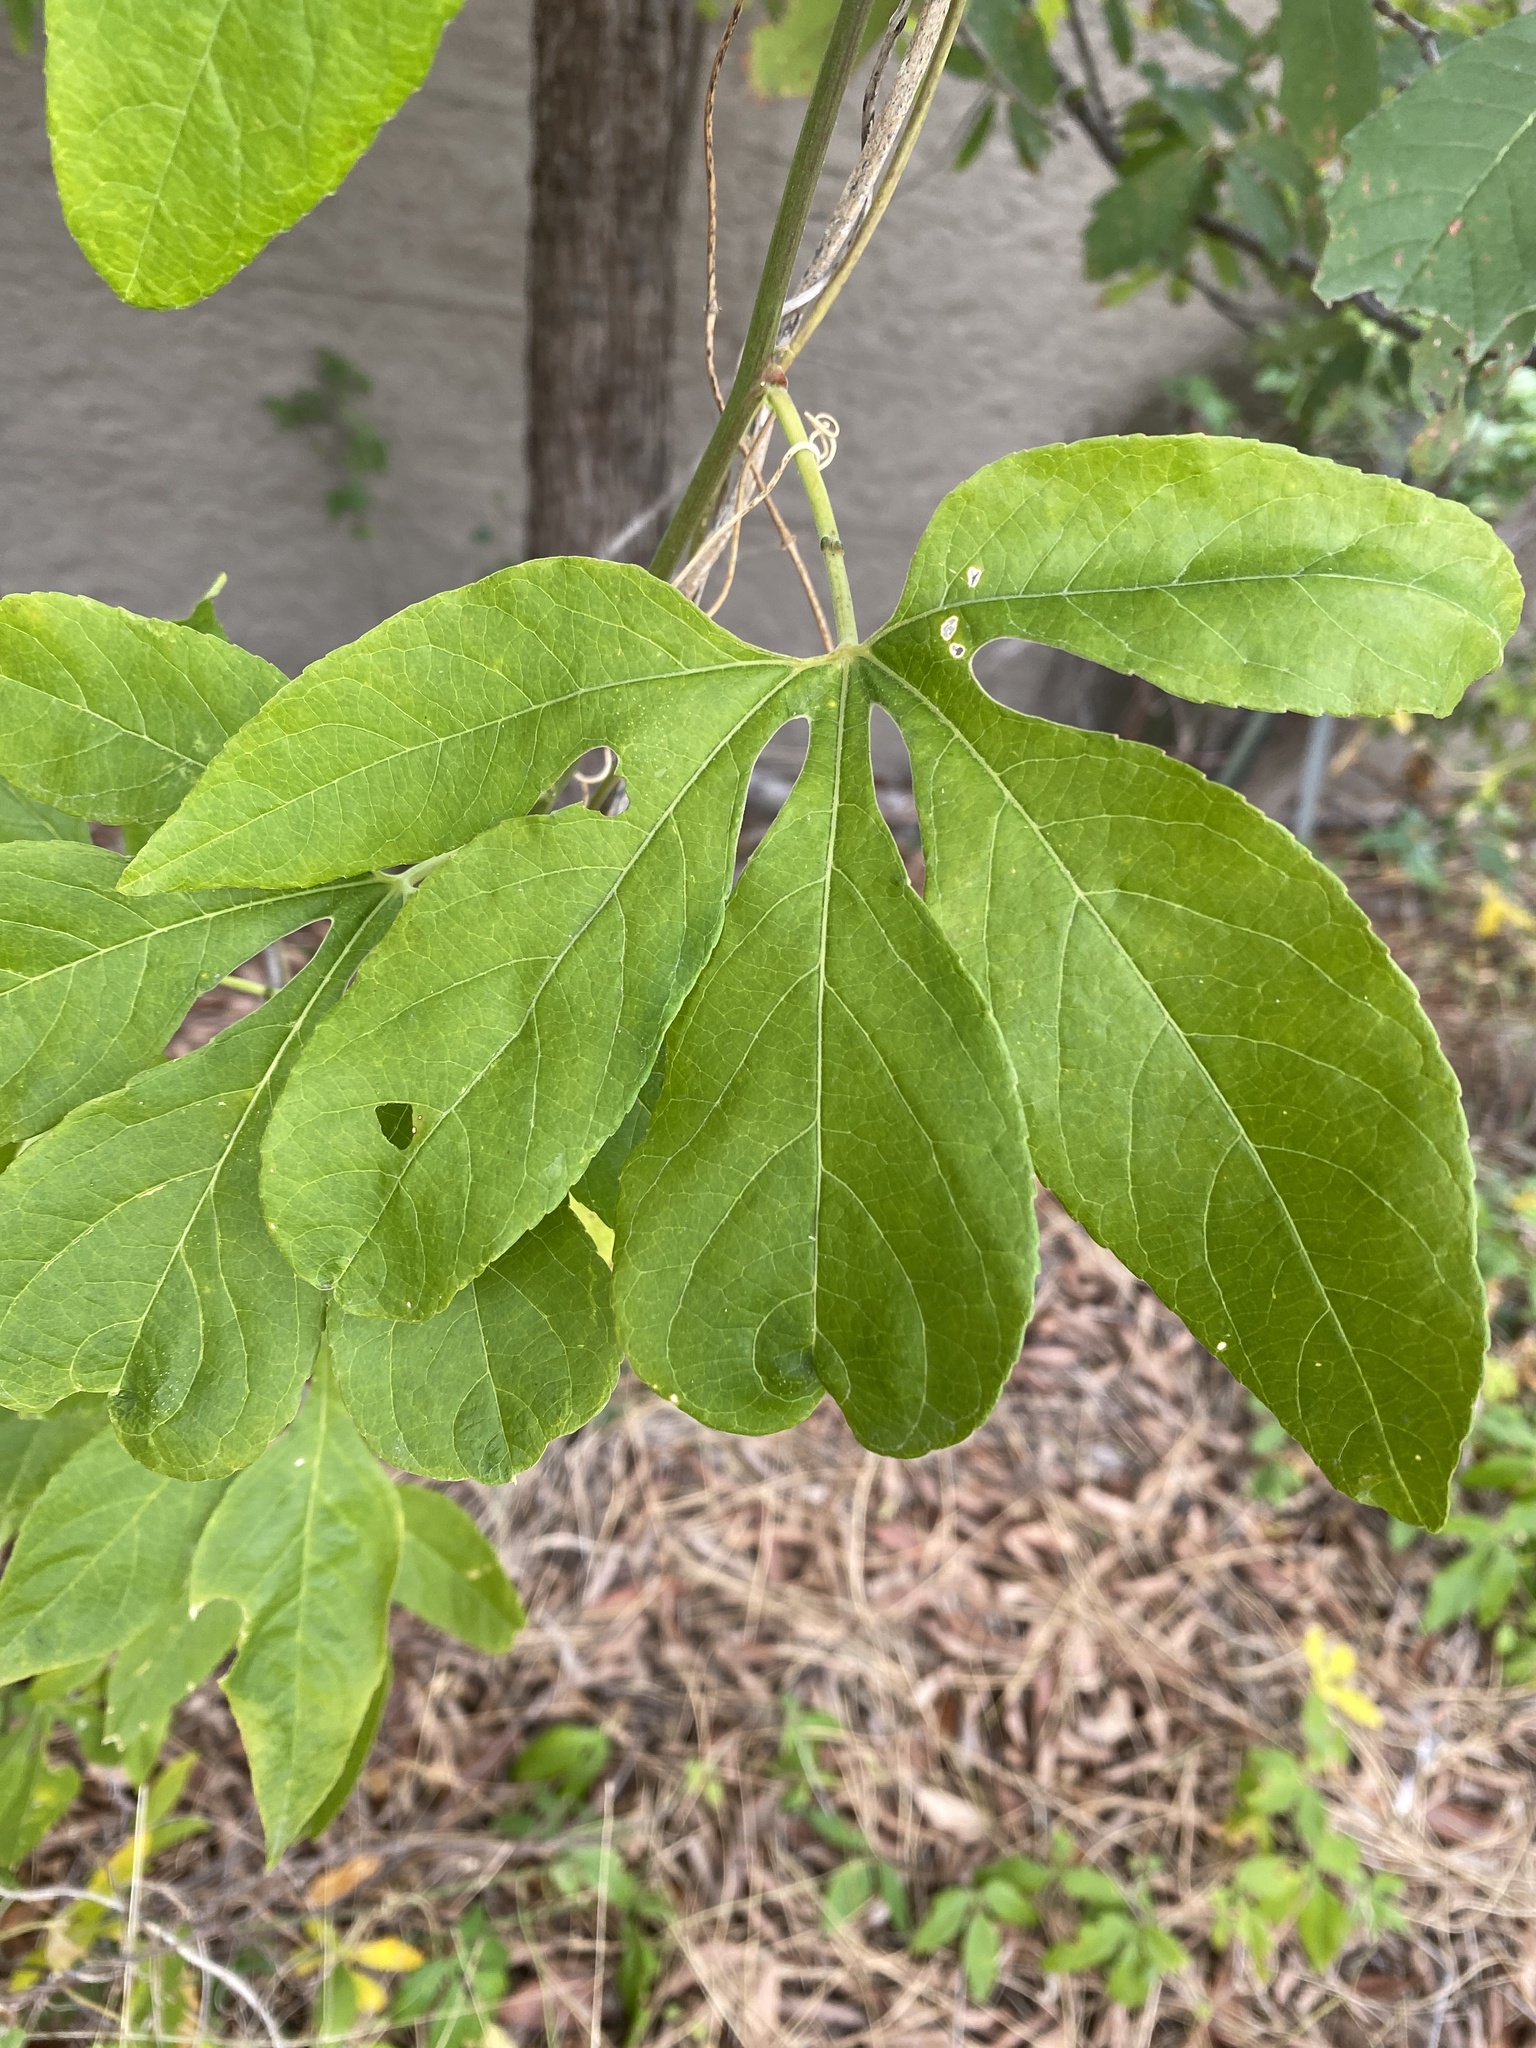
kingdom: Plantae
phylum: Tracheophyta
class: Magnoliopsida
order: Malpighiales
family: Passifloraceae
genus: Passiflora
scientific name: Passiflora
